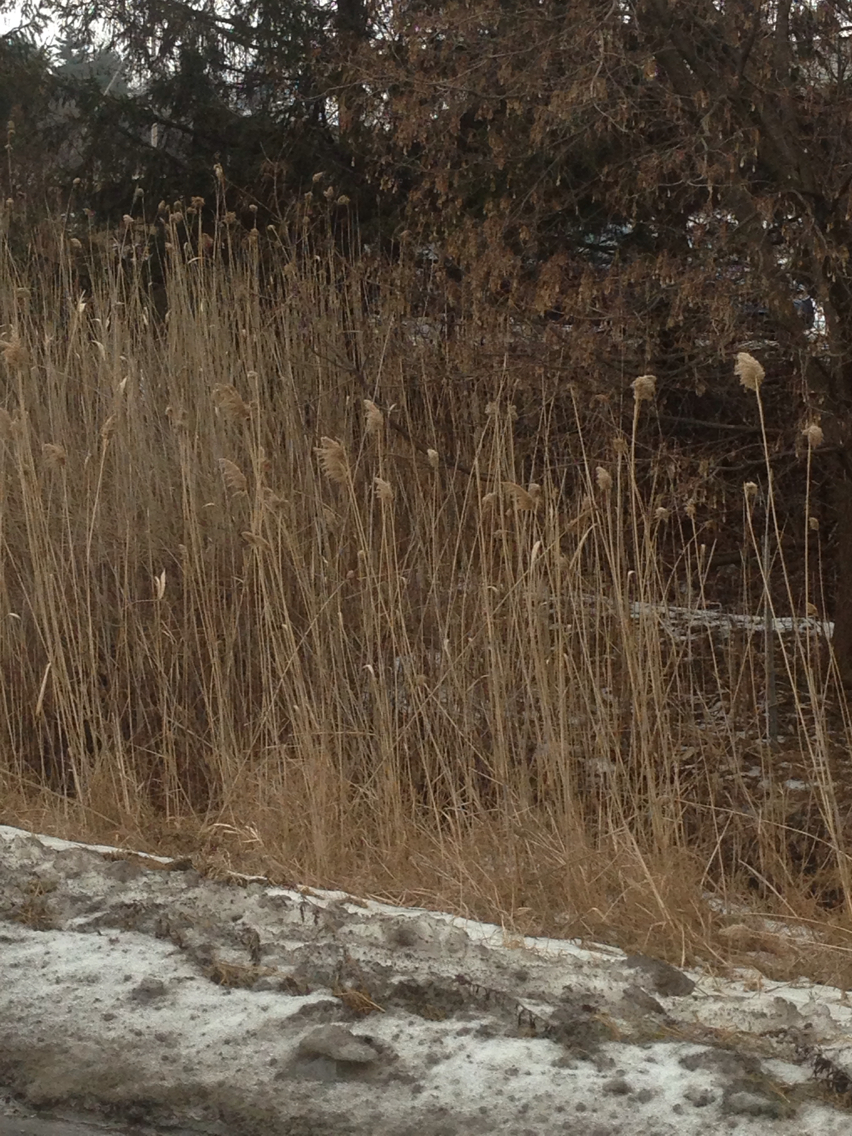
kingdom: Plantae
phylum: Tracheophyta
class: Liliopsida
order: Poales
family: Poaceae
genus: Phragmites
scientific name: Phragmites australis
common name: Common reed
